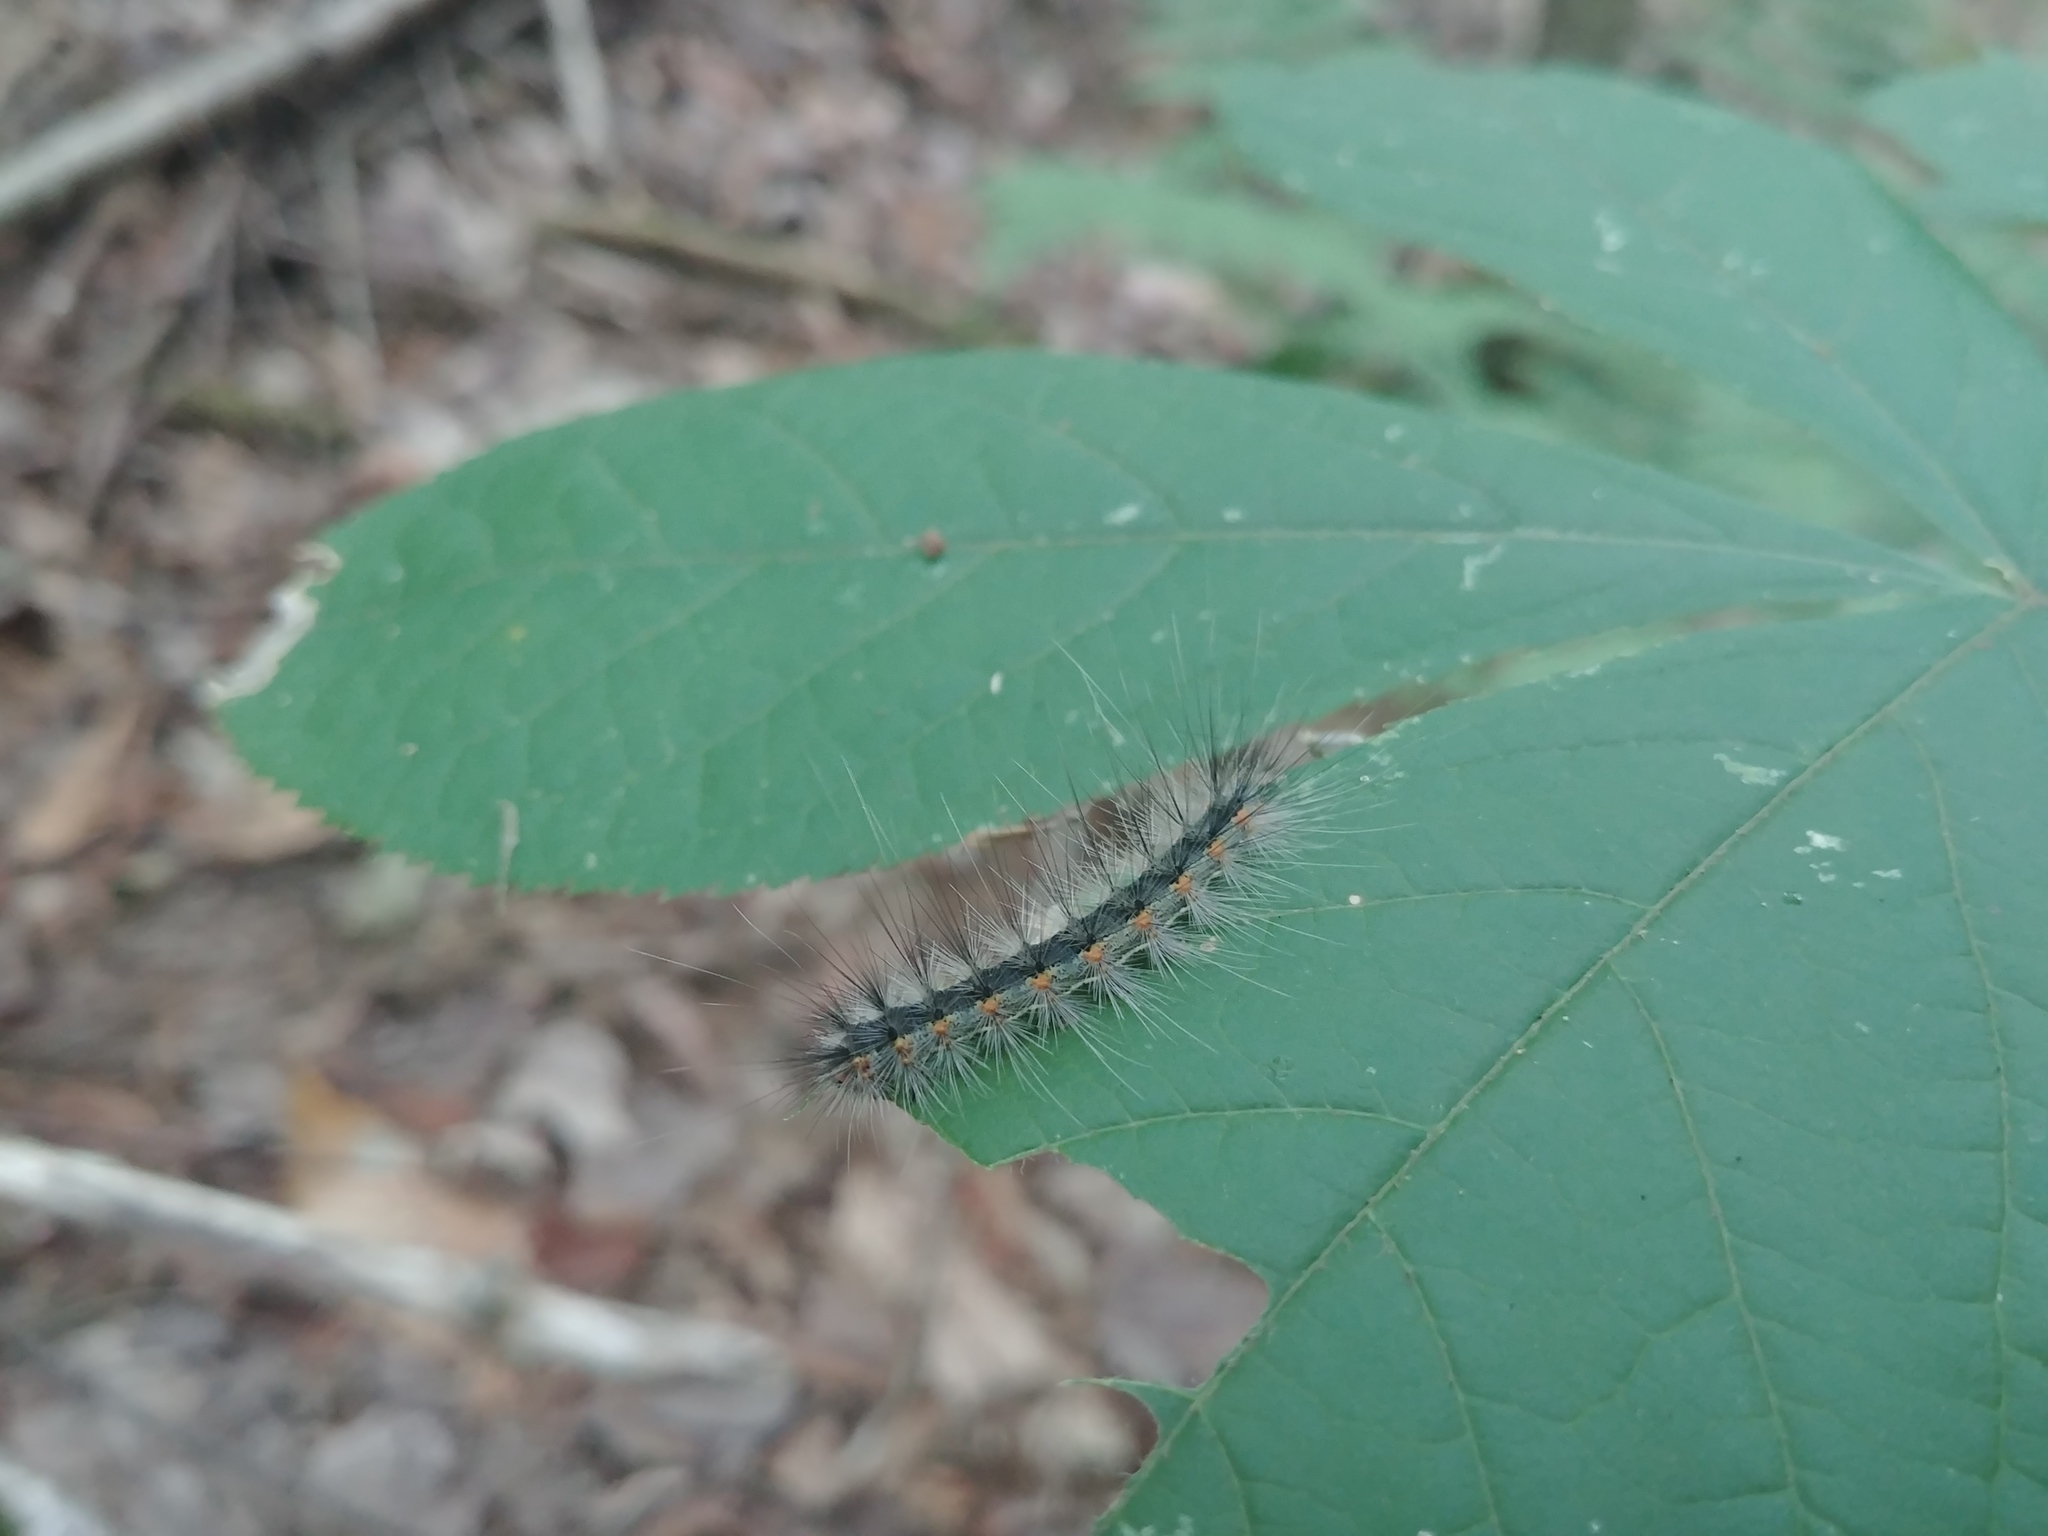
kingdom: Animalia
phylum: Arthropoda
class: Insecta
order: Lepidoptera
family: Erebidae
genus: Hyphantria
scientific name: Hyphantria cunea
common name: American white moth
